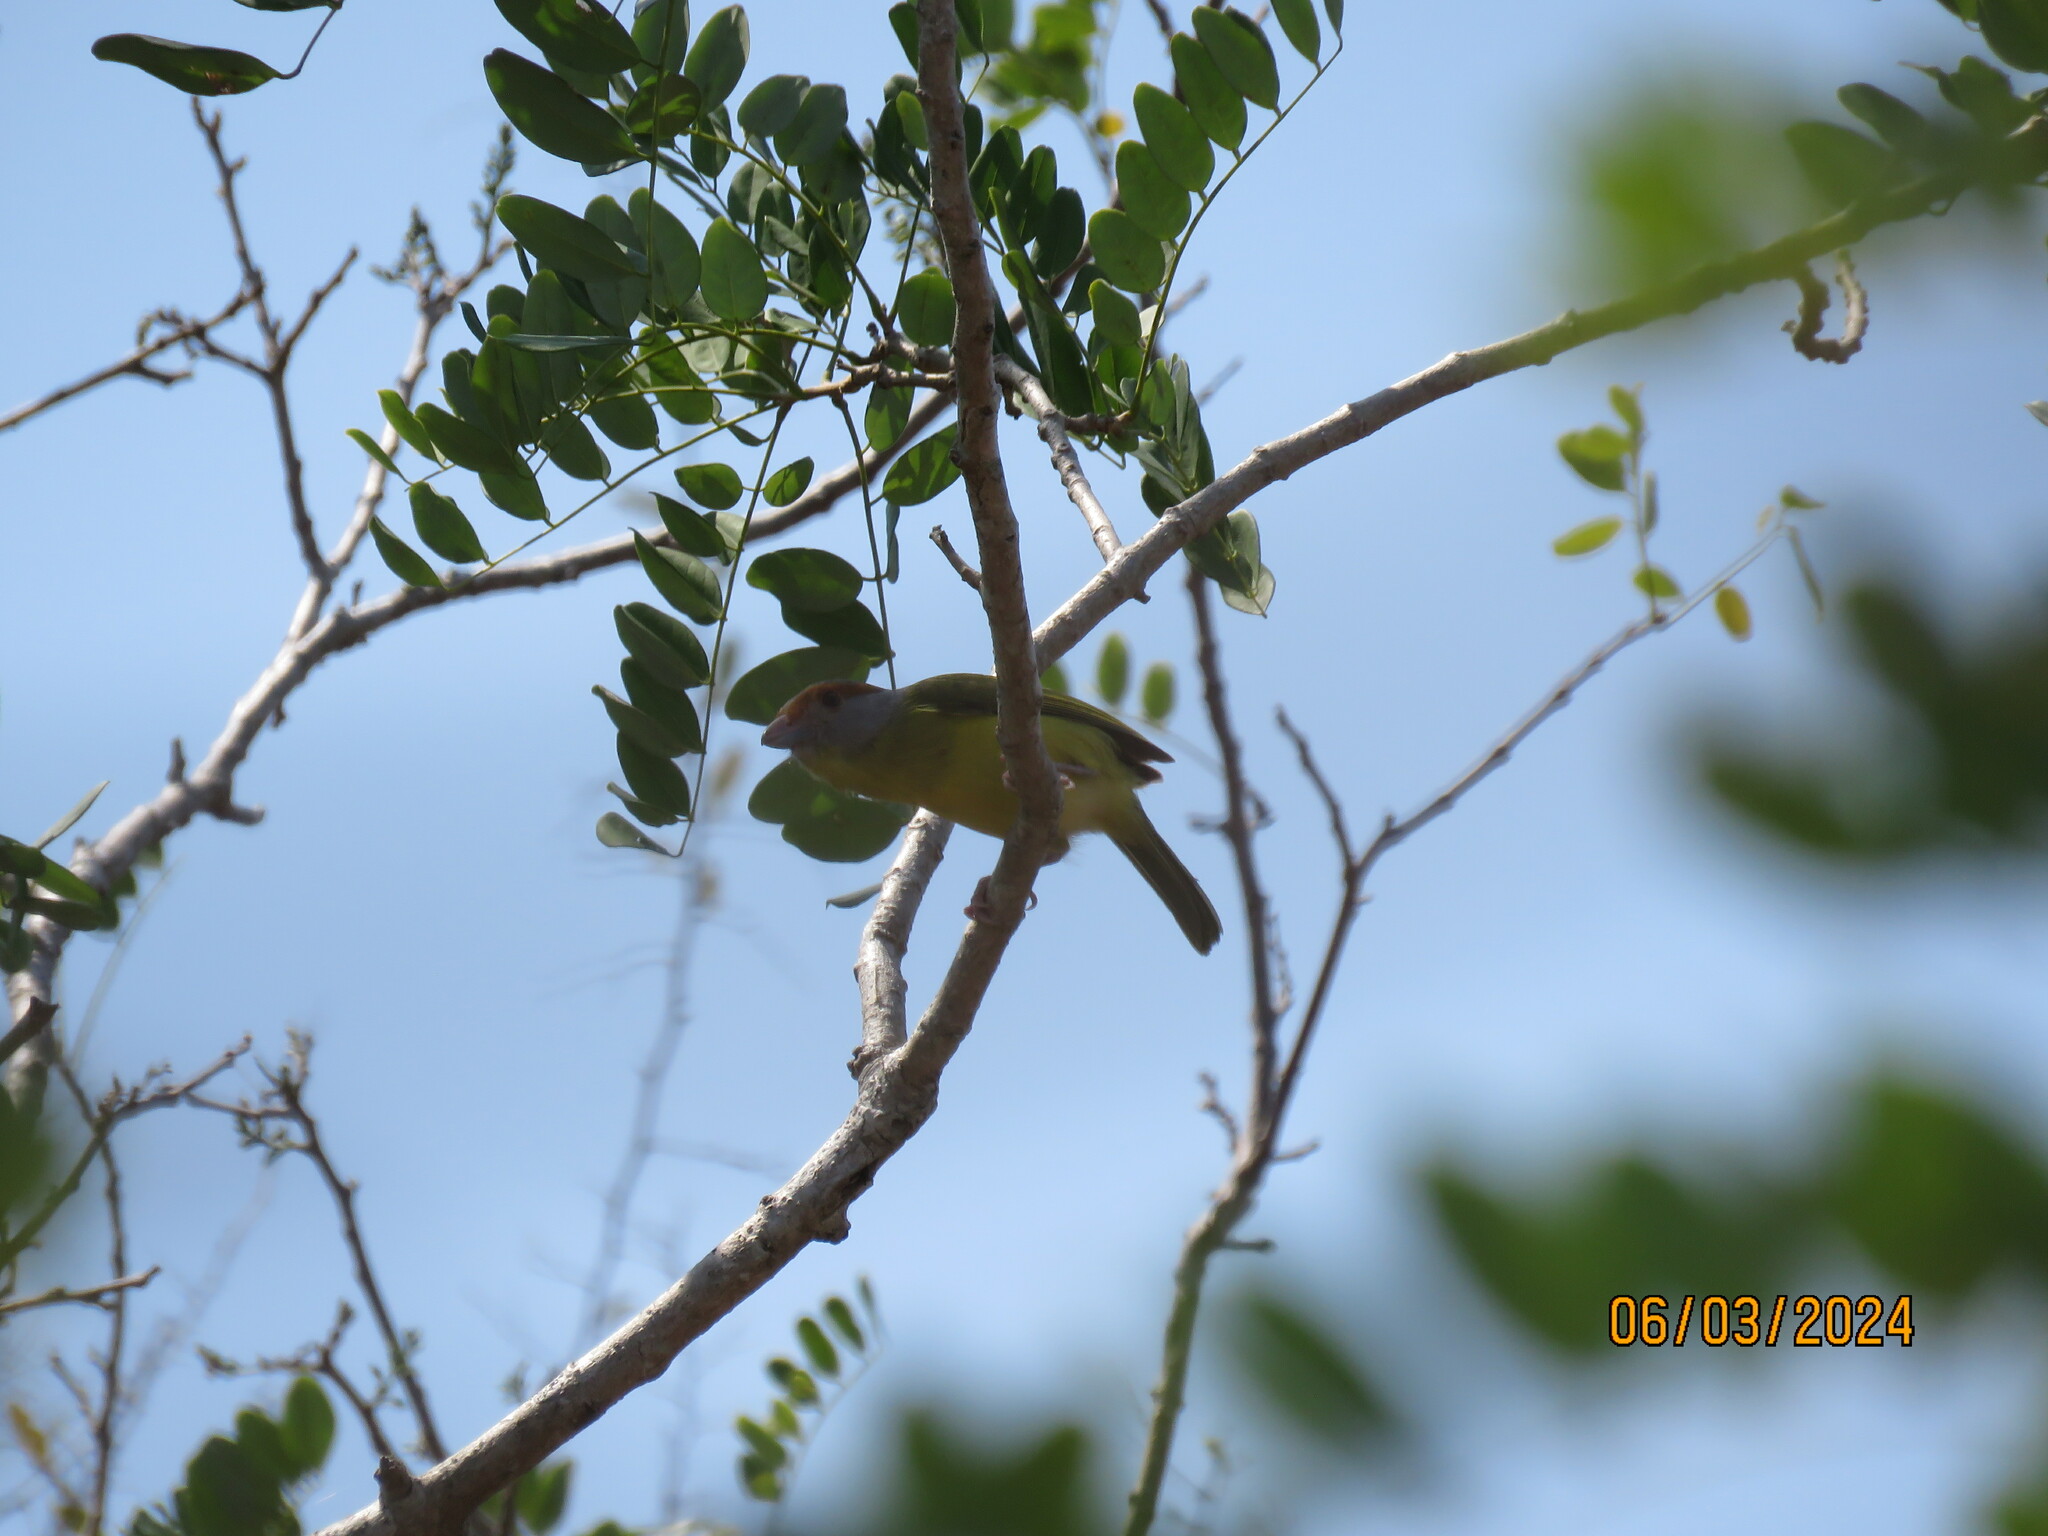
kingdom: Animalia
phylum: Chordata
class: Aves
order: Passeriformes
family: Vireonidae
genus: Cyclarhis
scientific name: Cyclarhis gujanensis
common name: Rufous-browed peppershrike
